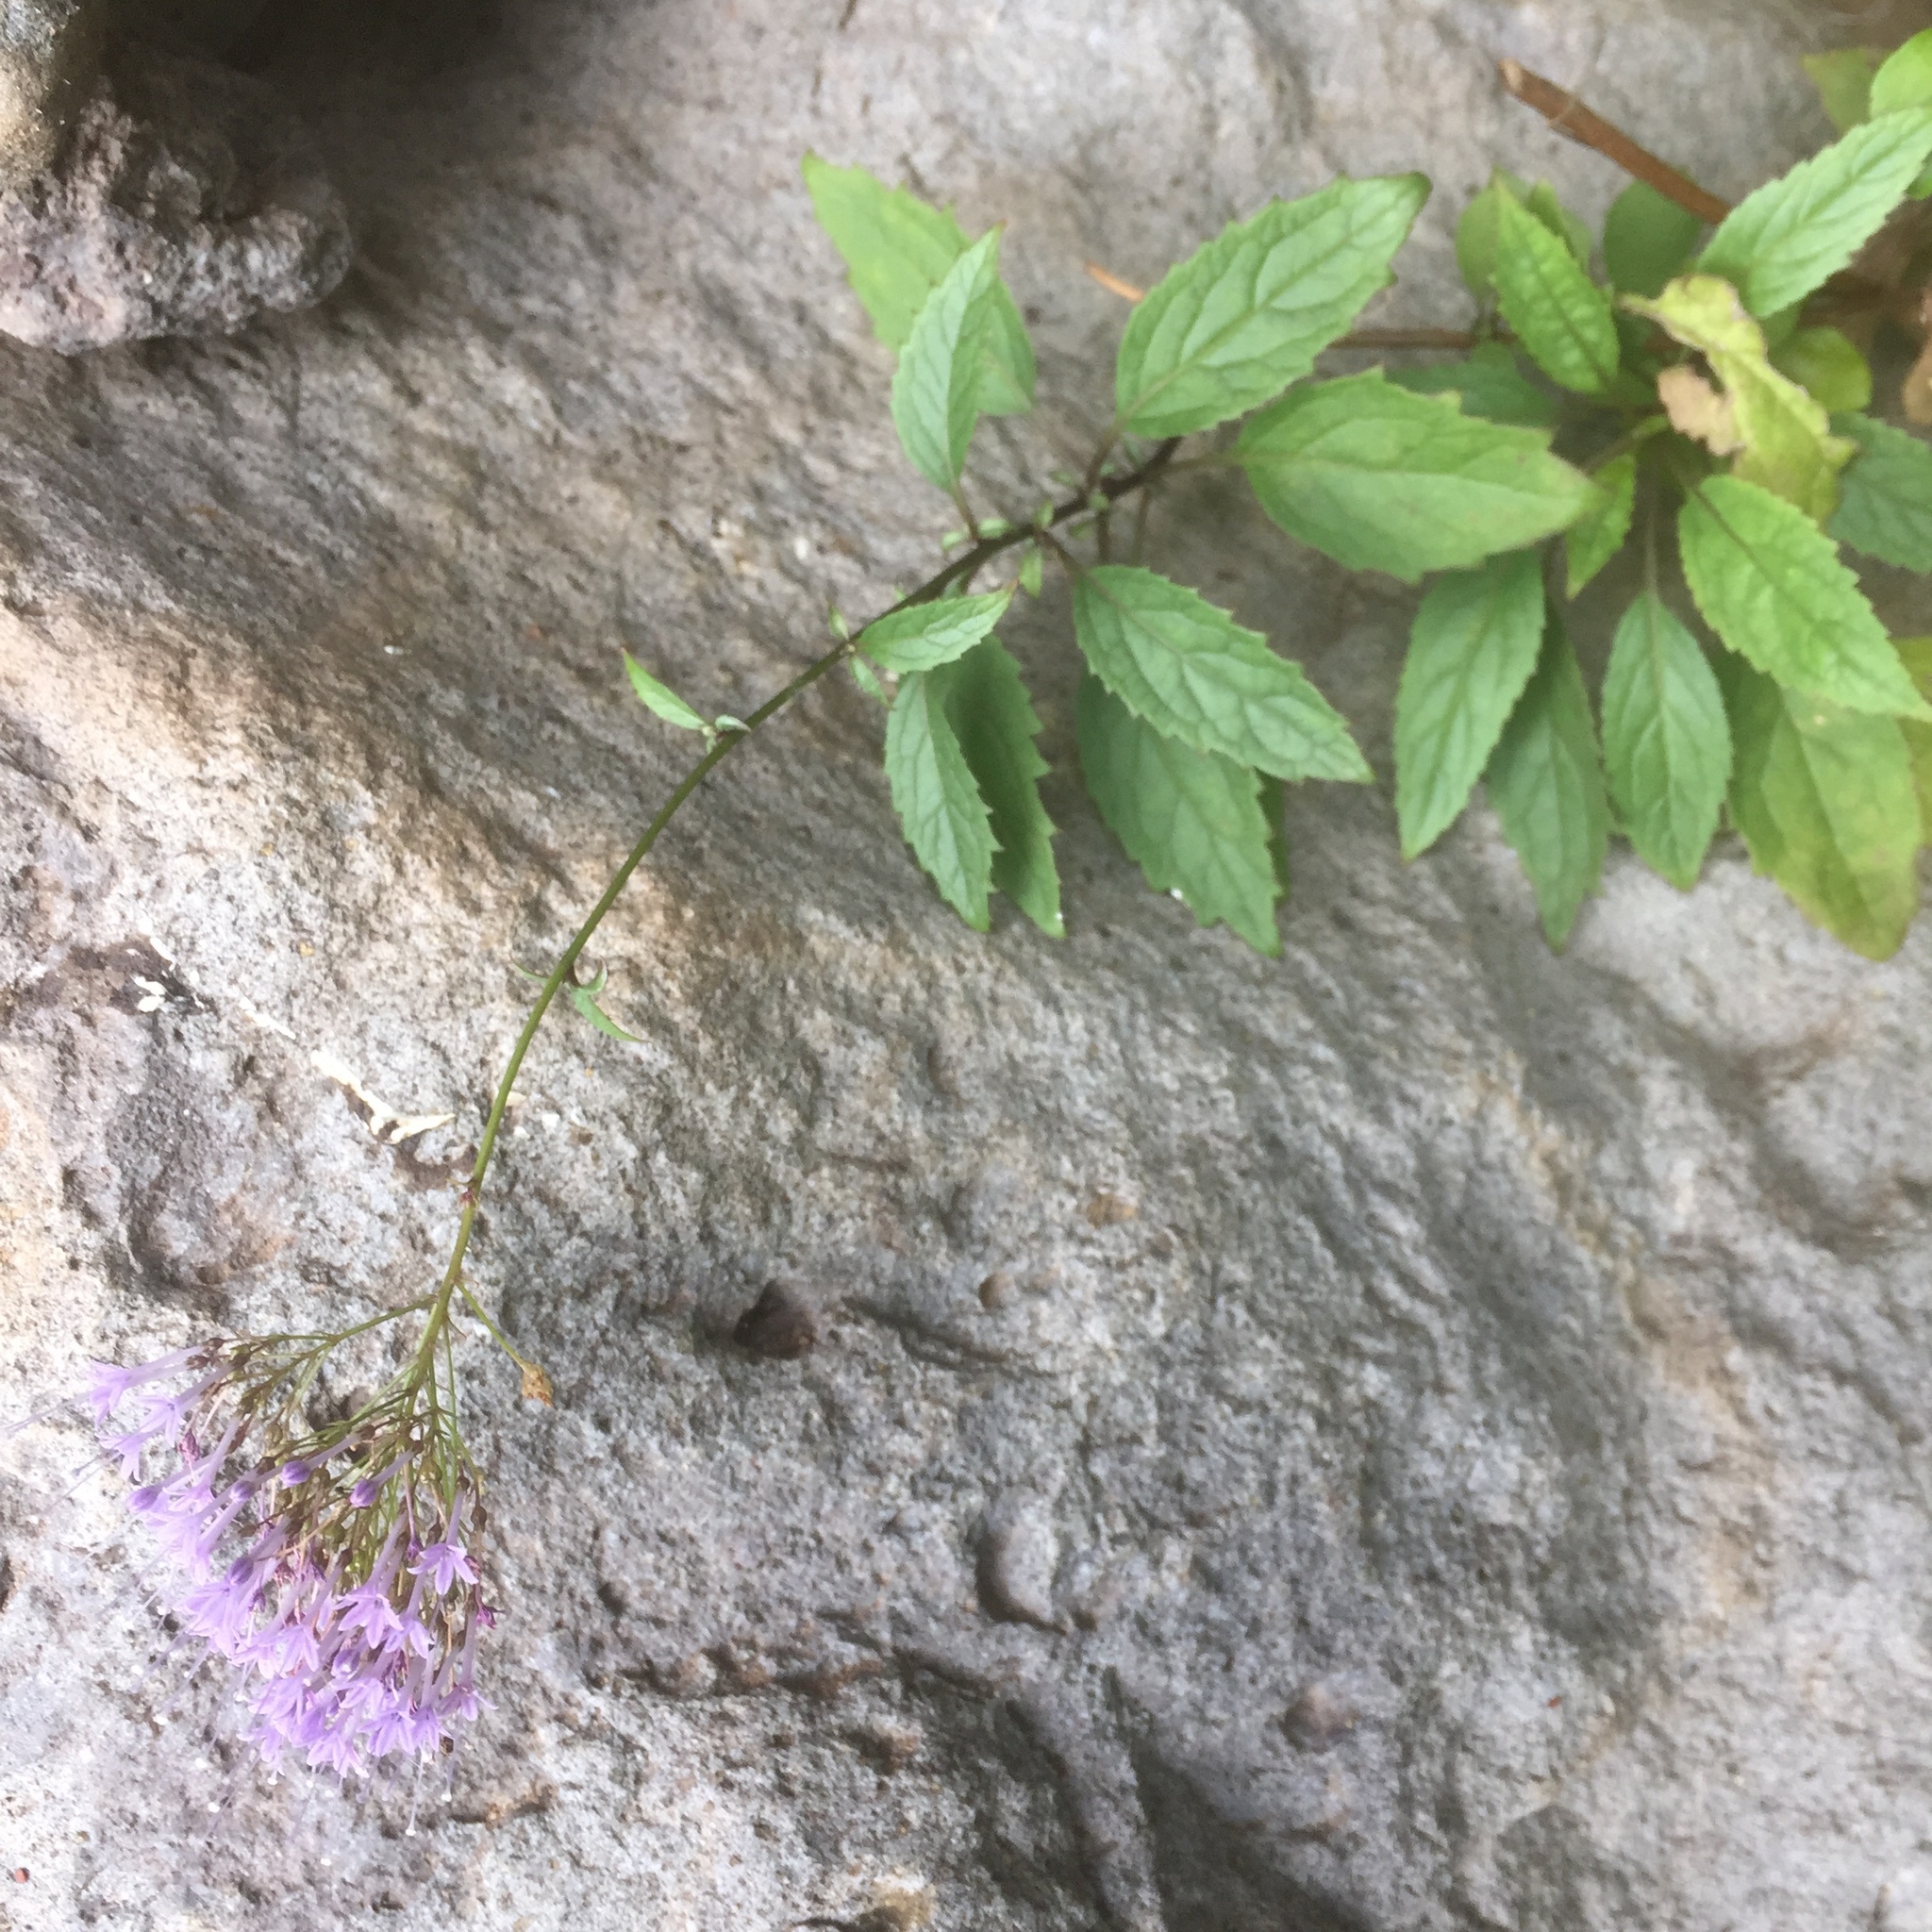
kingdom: Plantae
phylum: Tracheophyta
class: Magnoliopsida
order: Asterales
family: Campanulaceae
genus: Trachelium
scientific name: Trachelium caeruleum
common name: Throatwort
